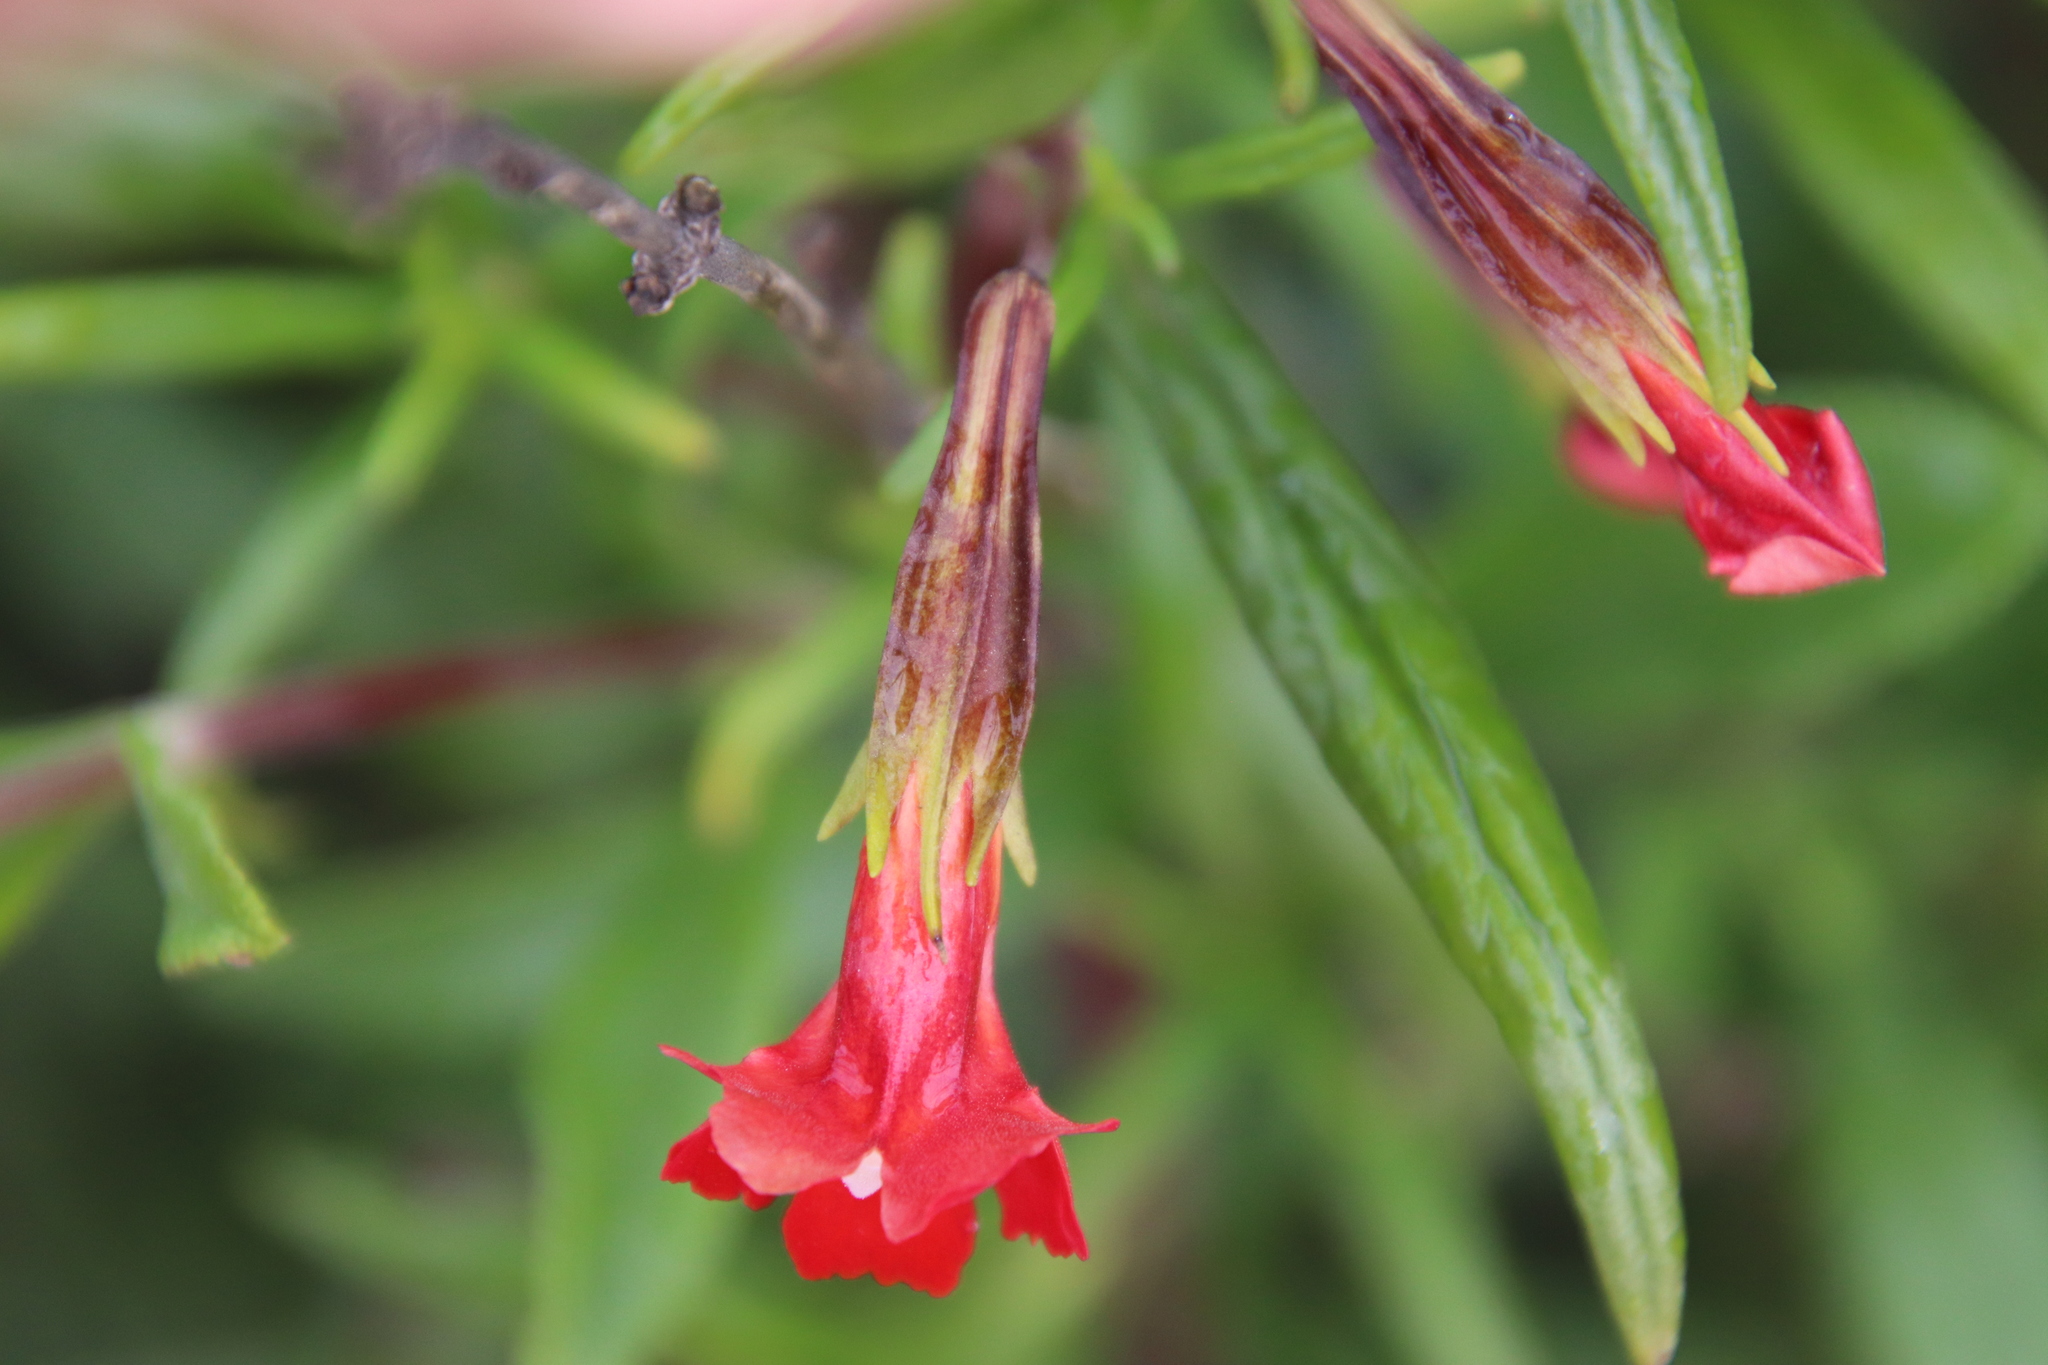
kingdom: Plantae
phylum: Tracheophyta
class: Magnoliopsida
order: Lamiales
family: Phrymaceae
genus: Diplacus
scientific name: Diplacus puniceus
